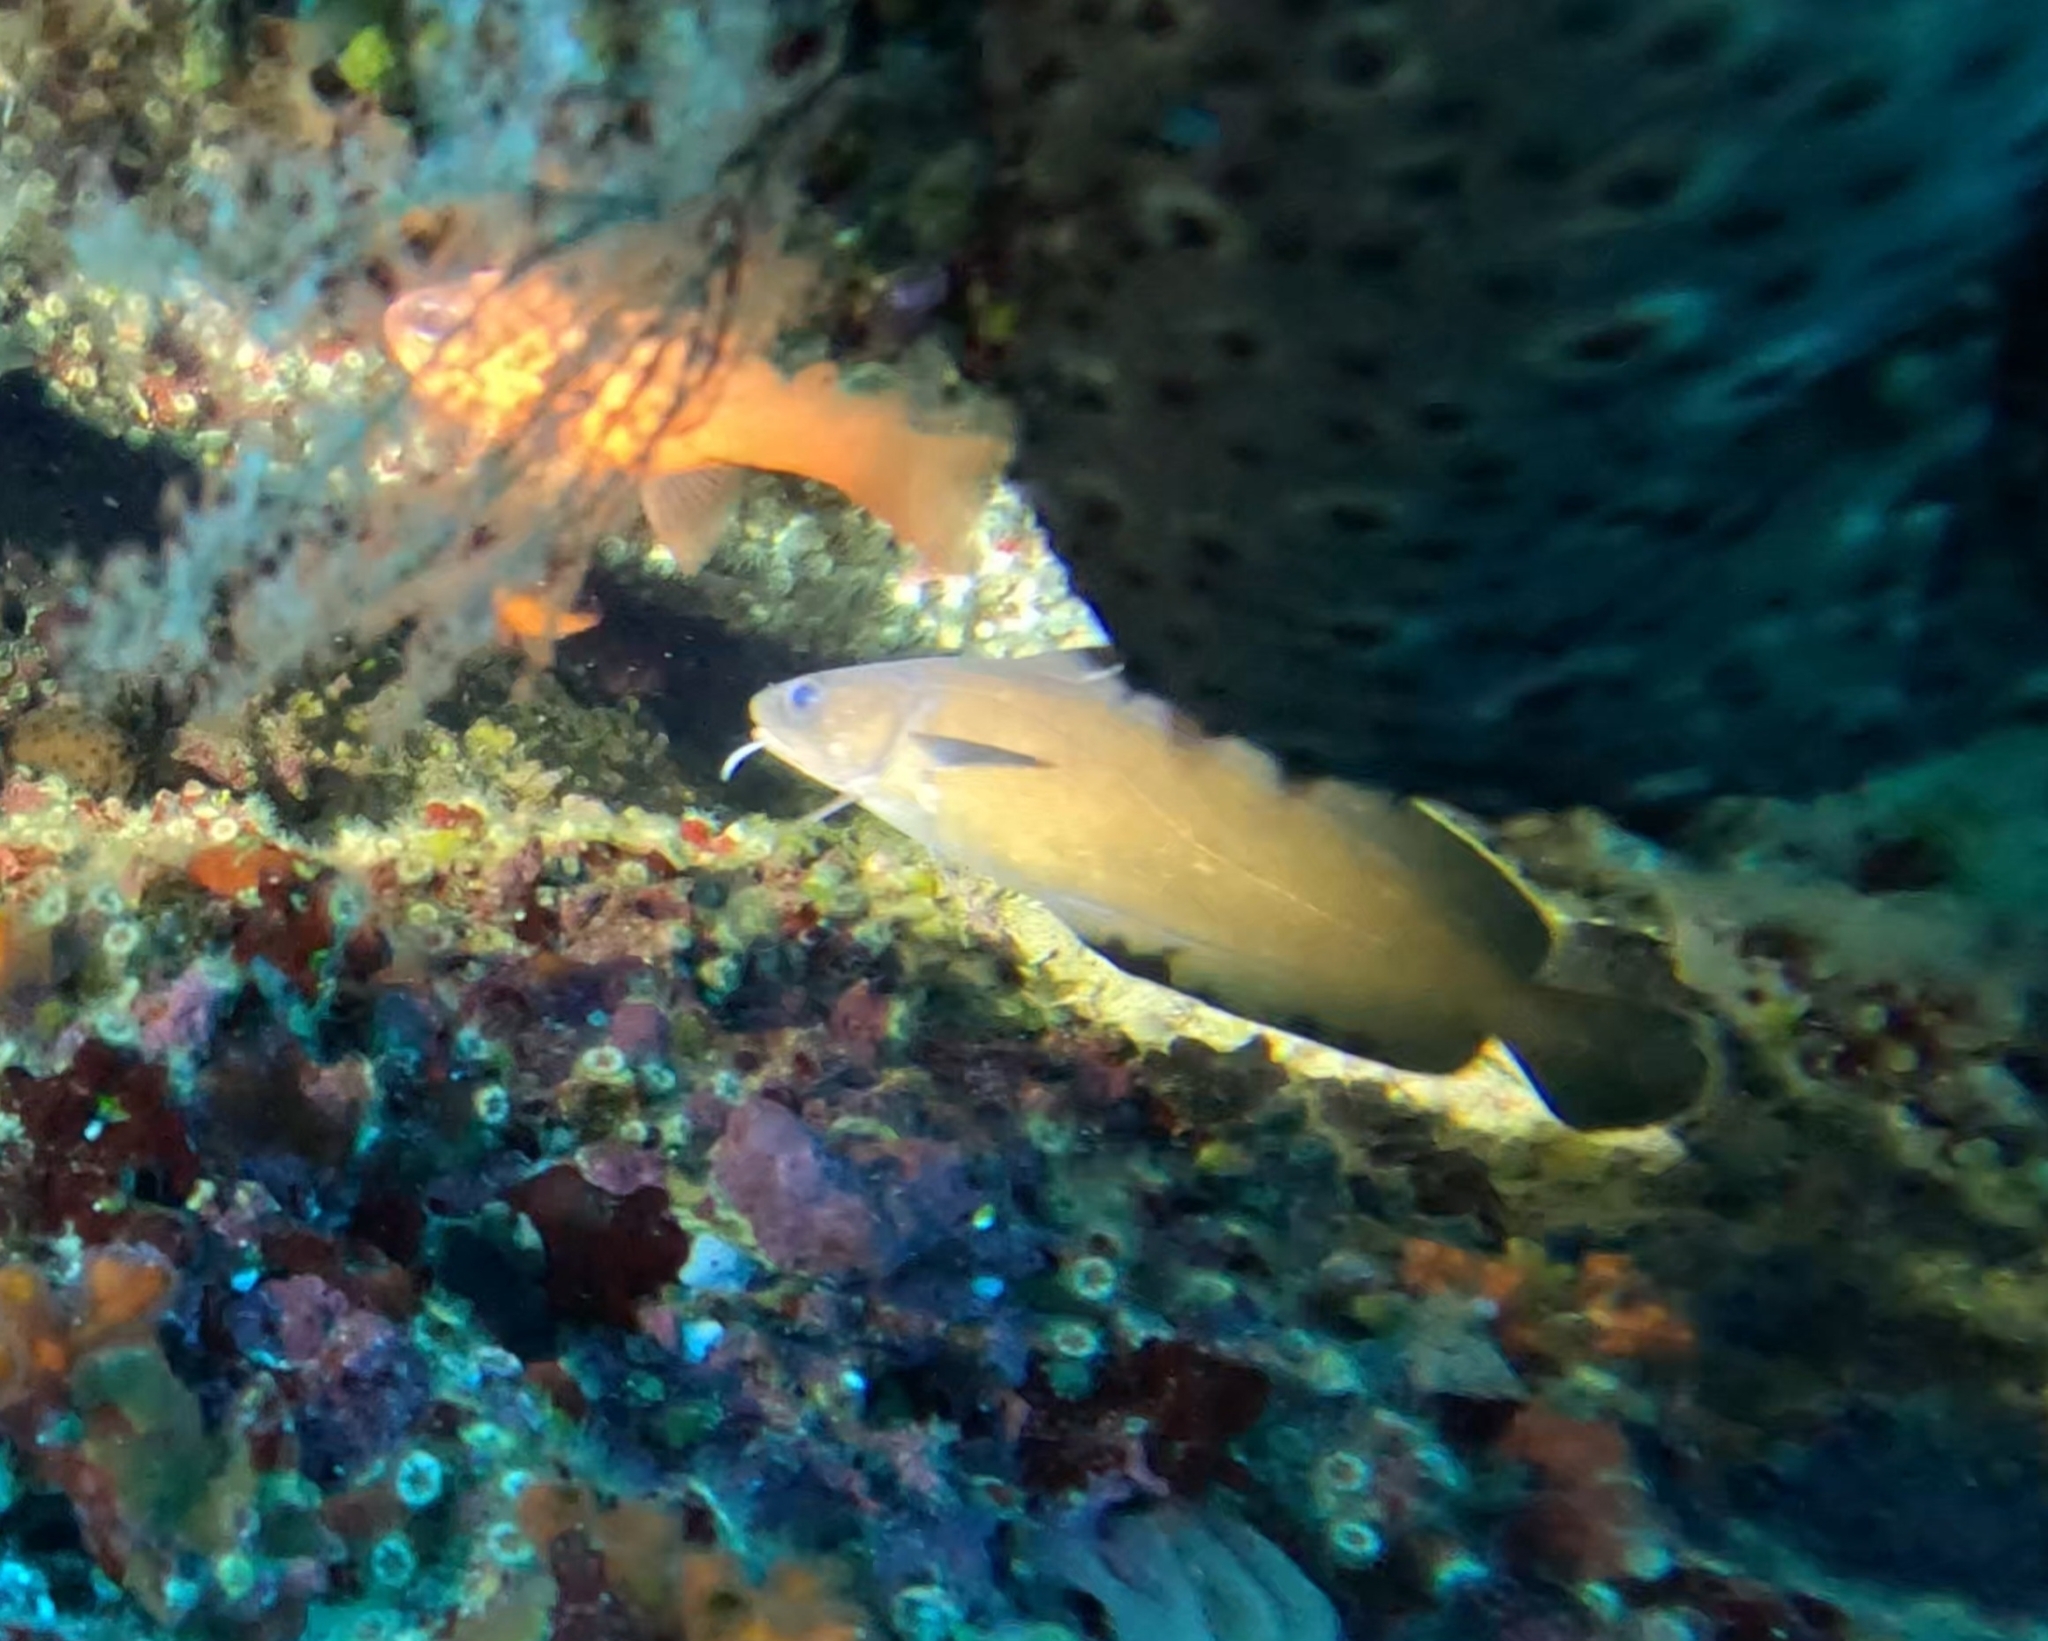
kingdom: Animalia
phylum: Chordata
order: Gadiformes
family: Phycidae
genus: Phycis
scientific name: Phycis phycis
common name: Forkbeard
